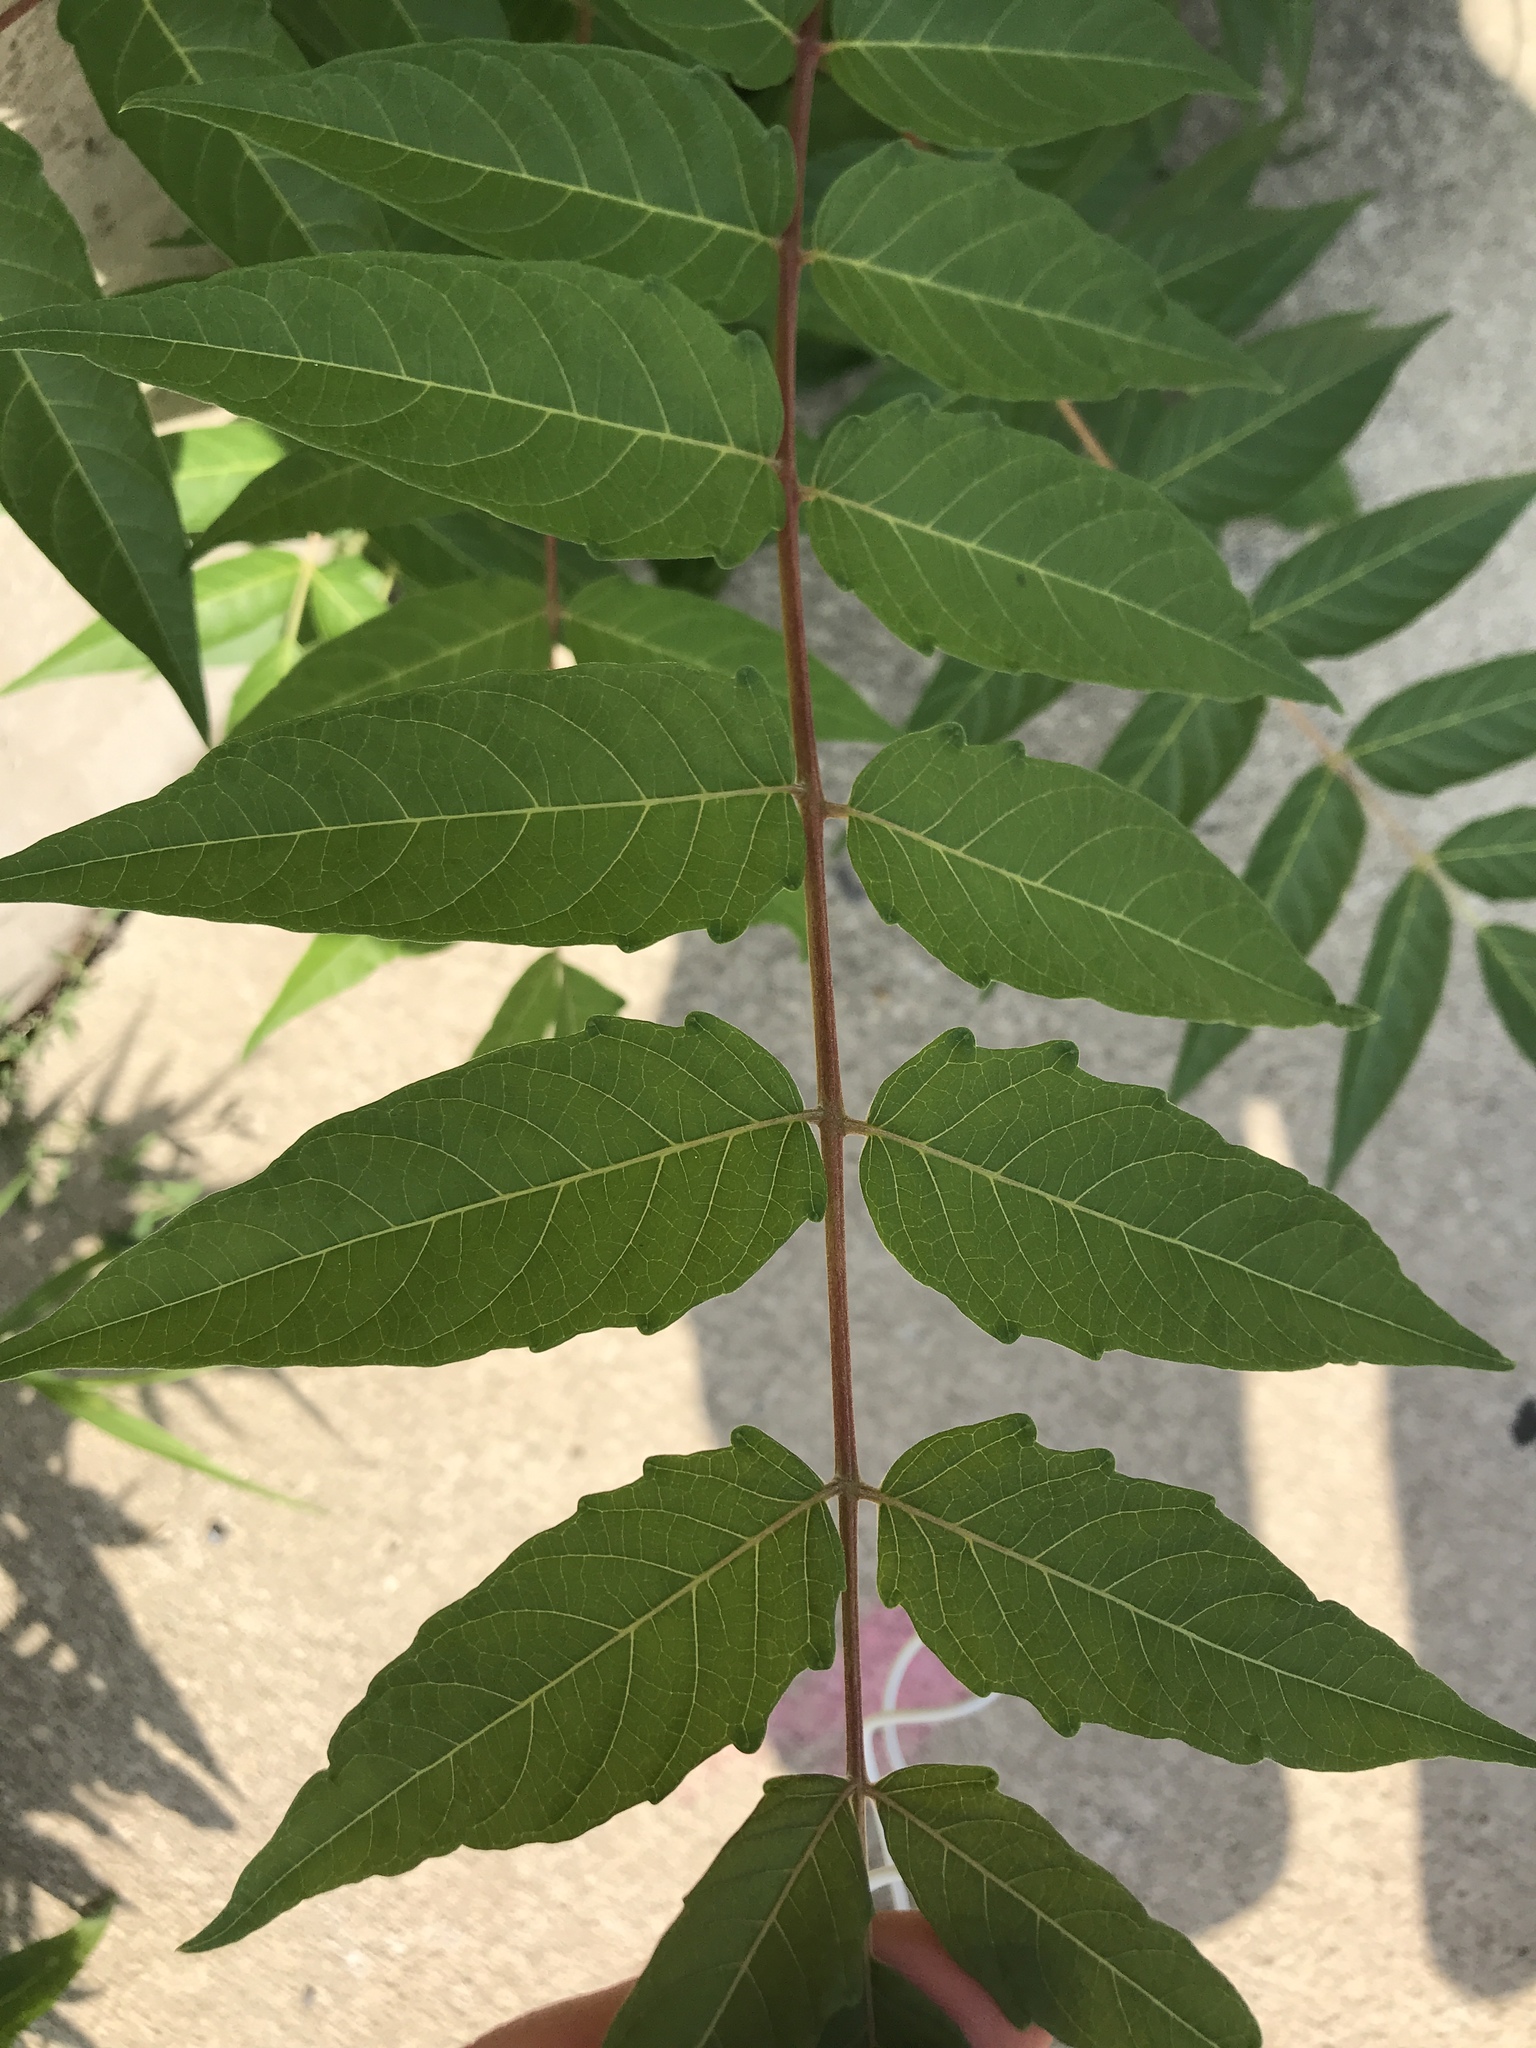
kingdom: Plantae
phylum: Tracheophyta
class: Magnoliopsida
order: Sapindales
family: Simaroubaceae
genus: Ailanthus
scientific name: Ailanthus altissima
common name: Tree-of-heaven
